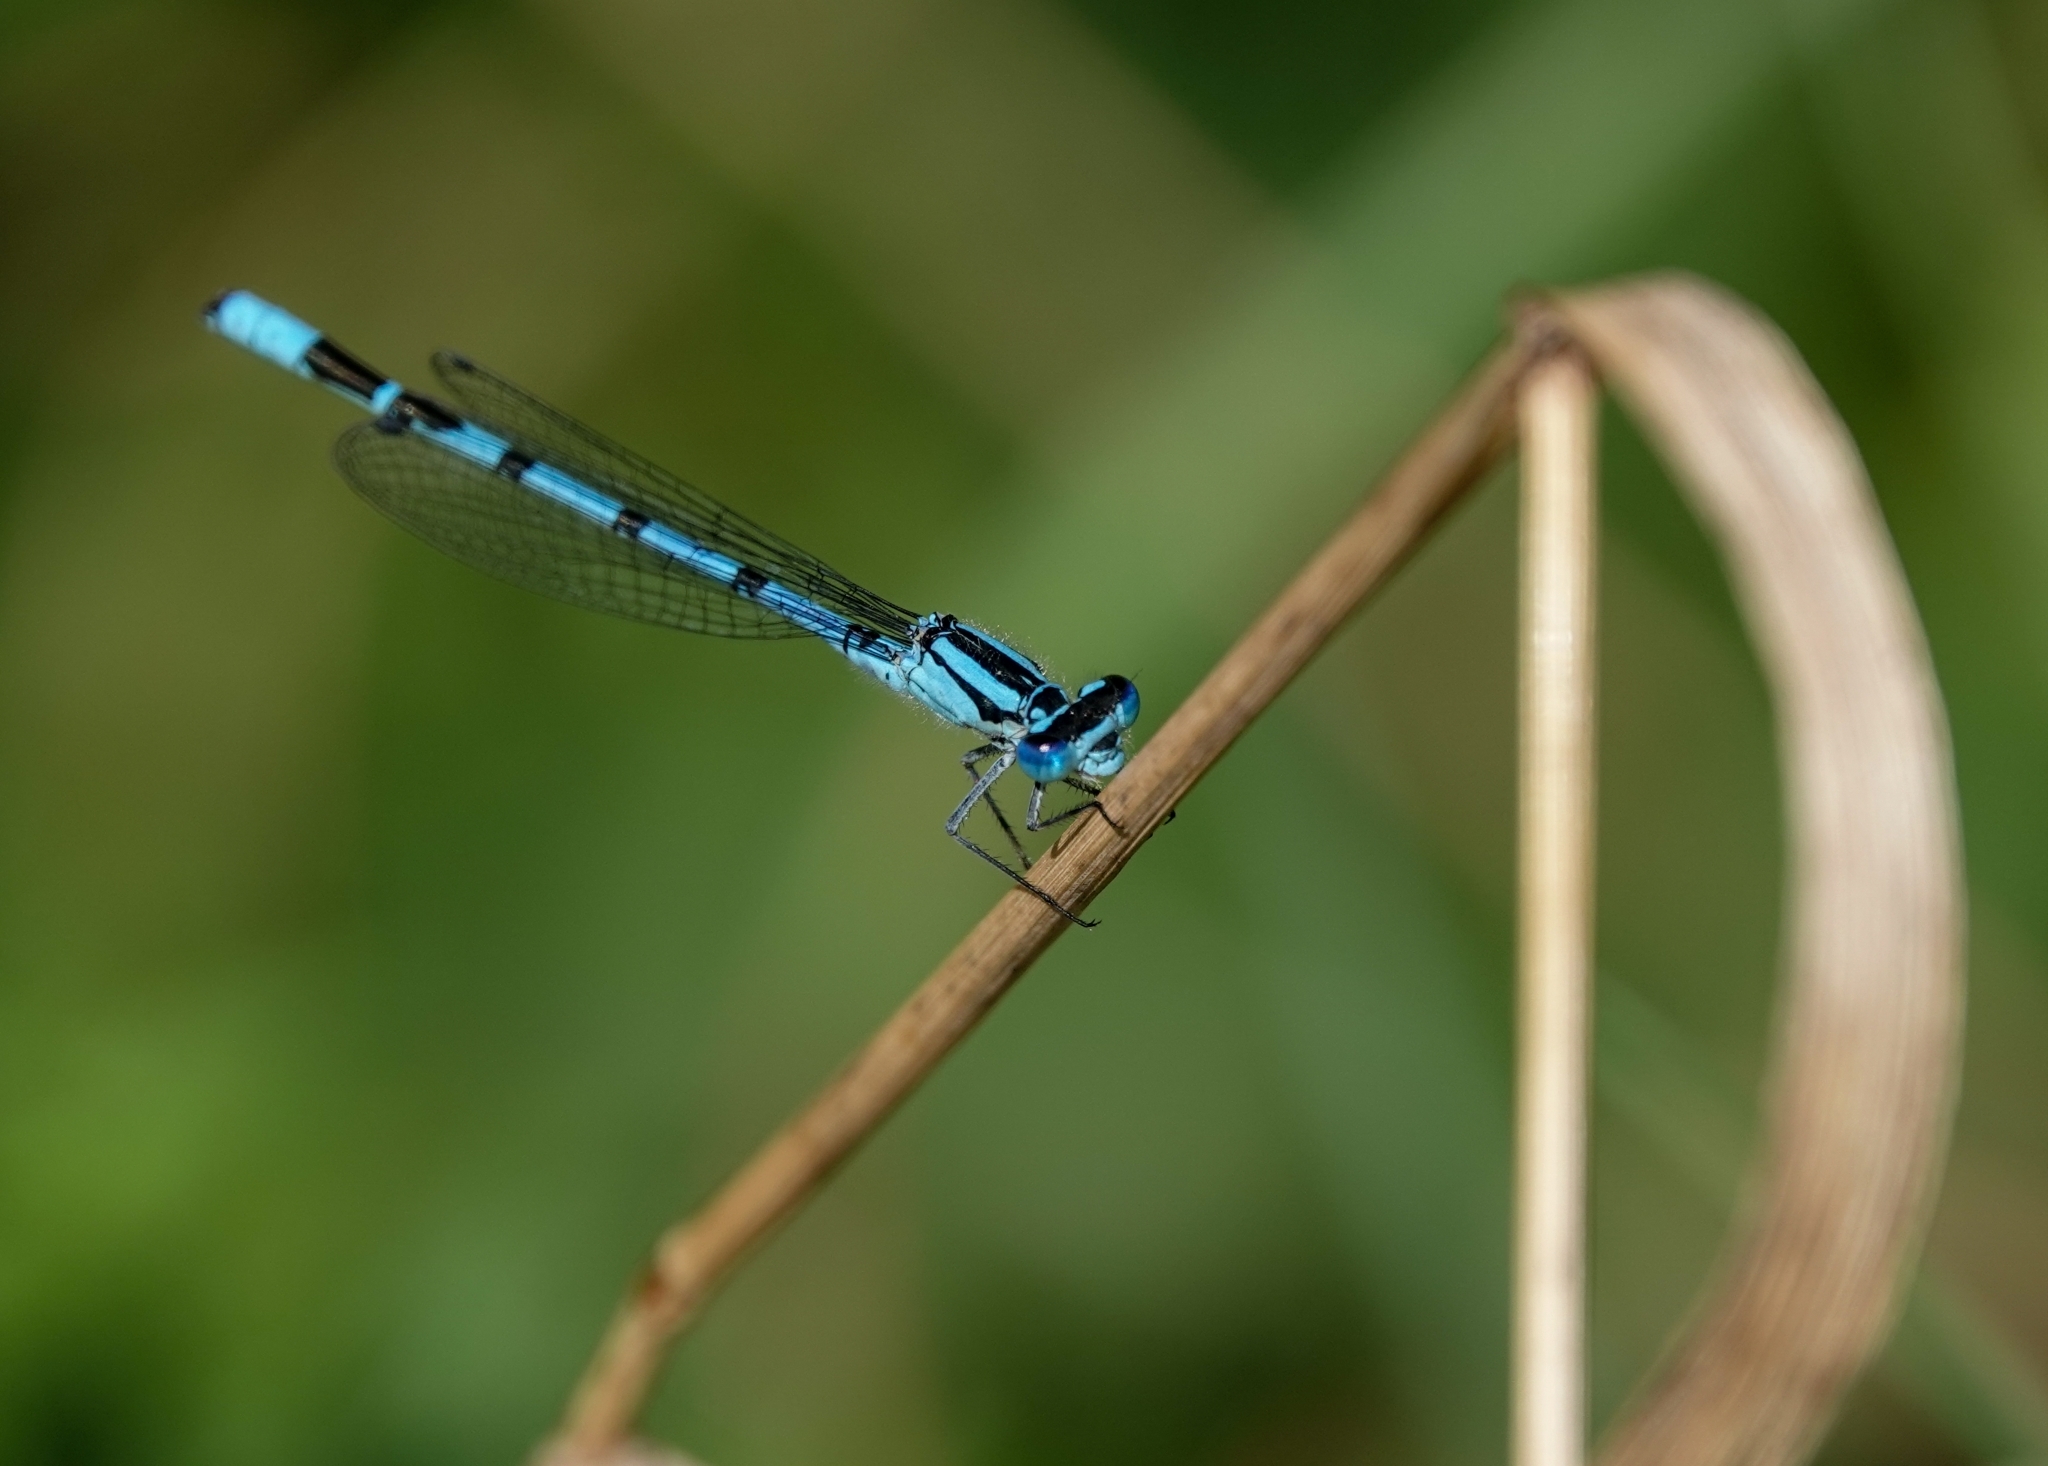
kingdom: Animalia
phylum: Arthropoda
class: Insecta
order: Odonata
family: Coenagrionidae
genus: Enallagma
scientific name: Enallagma cyathigerum
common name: Common blue damselfly
